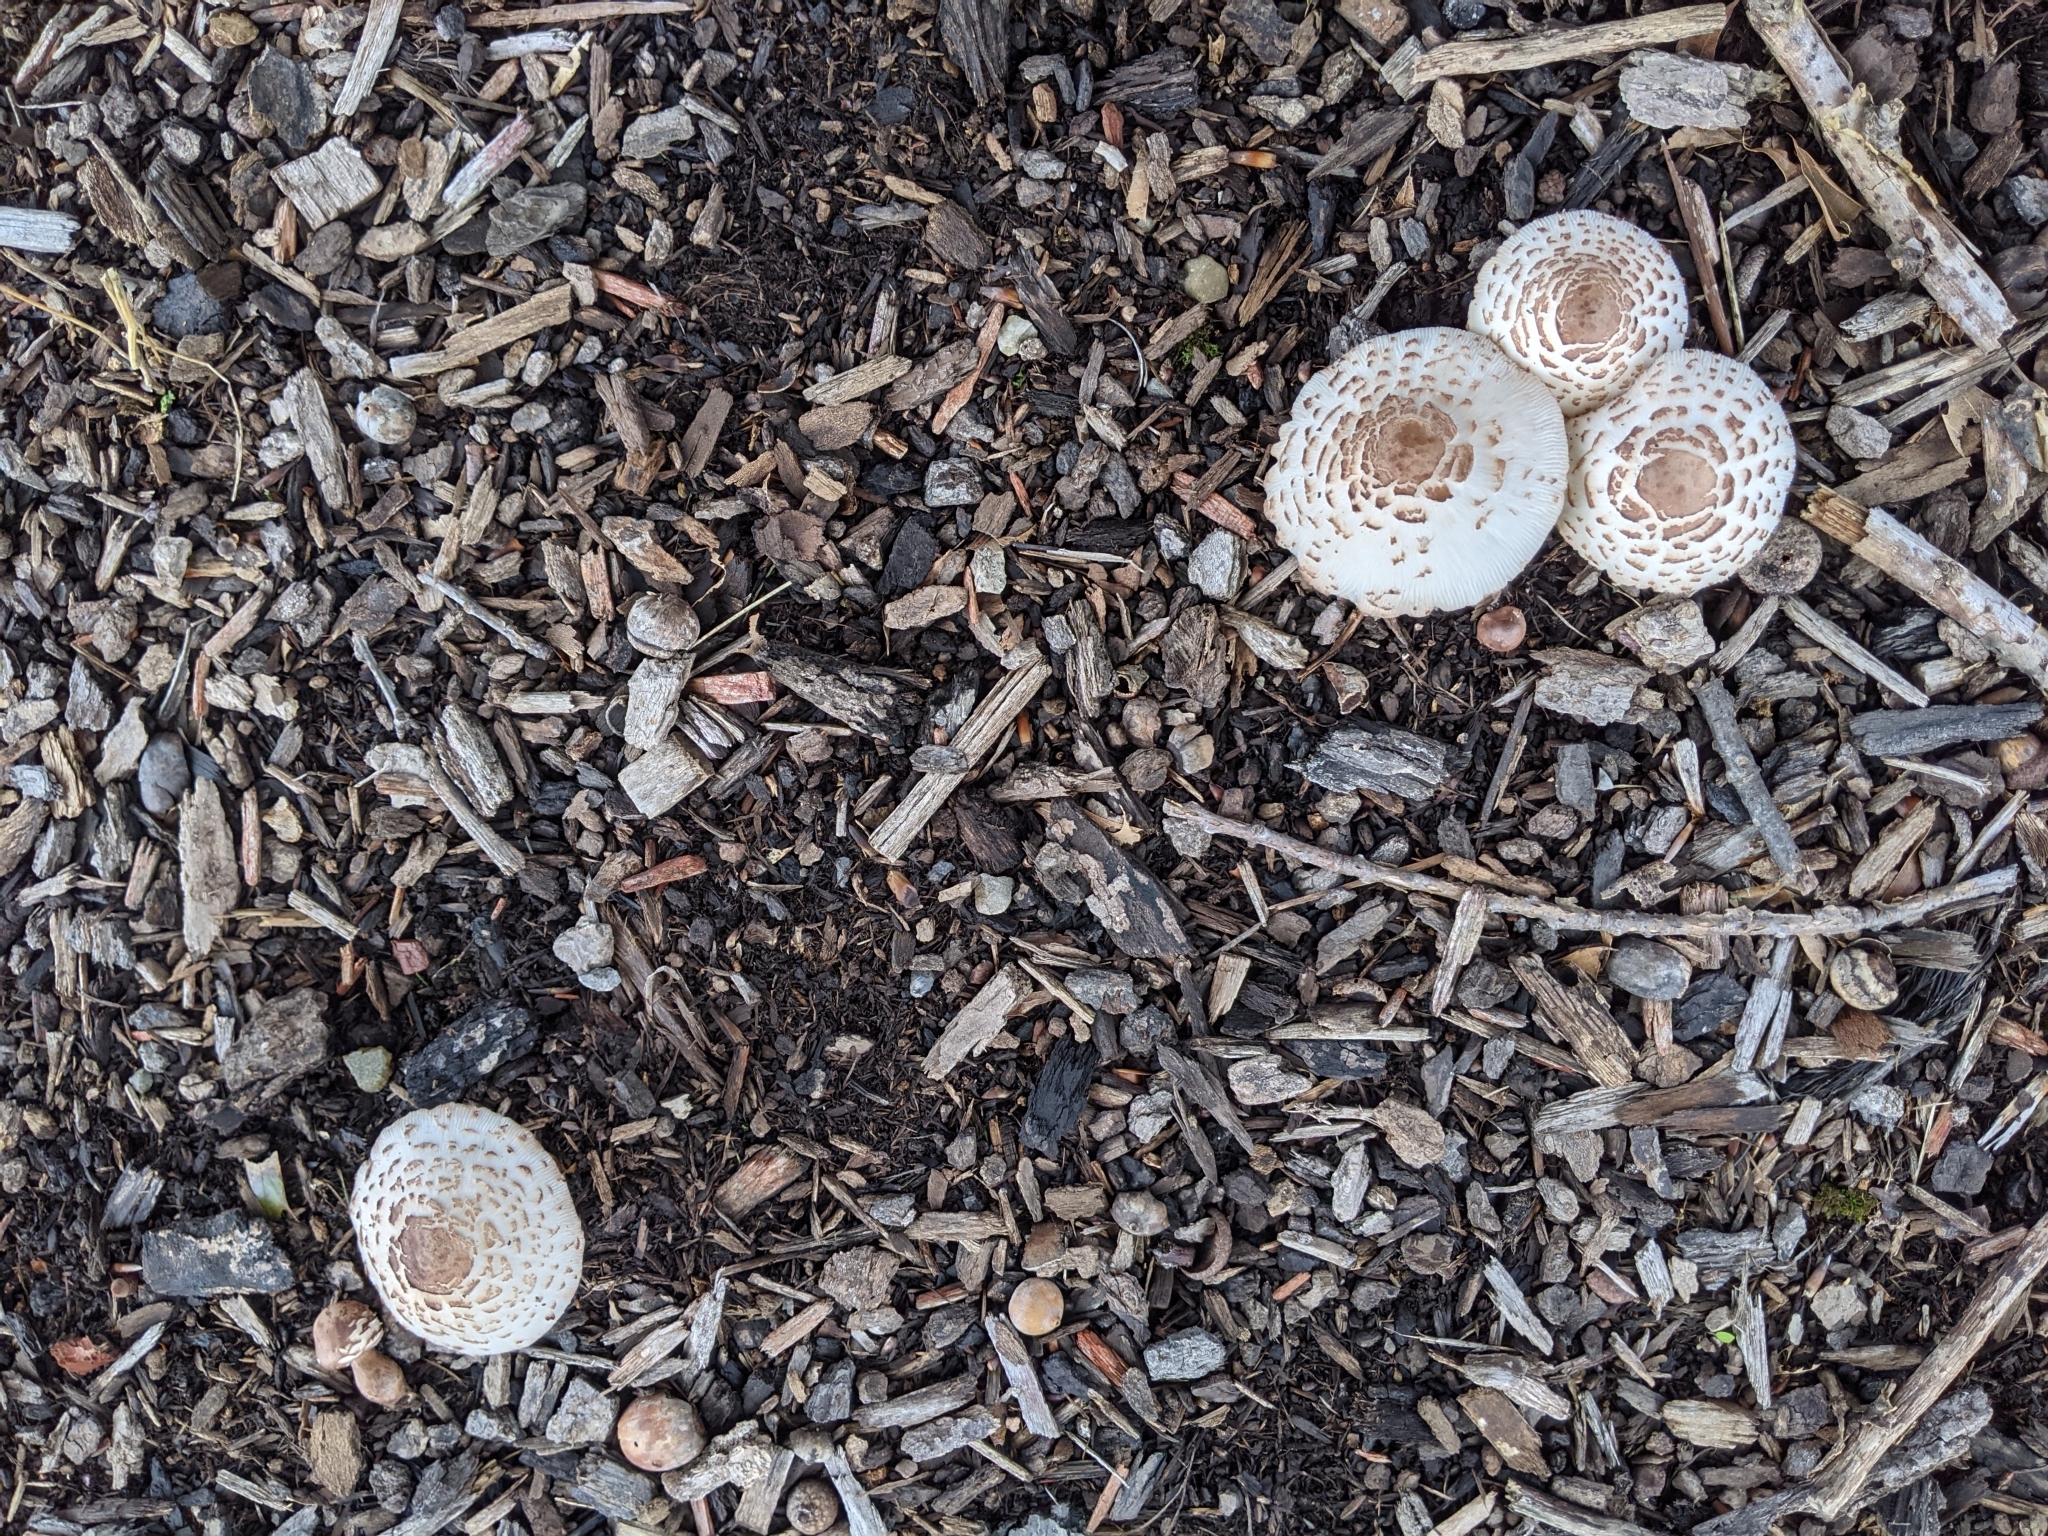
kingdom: Fungi
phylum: Basidiomycota
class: Agaricomycetes
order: Agaricales
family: Agaricaceae
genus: Leucoagaricus
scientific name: Leucoagaricus americanus
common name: Reddening lepiota
